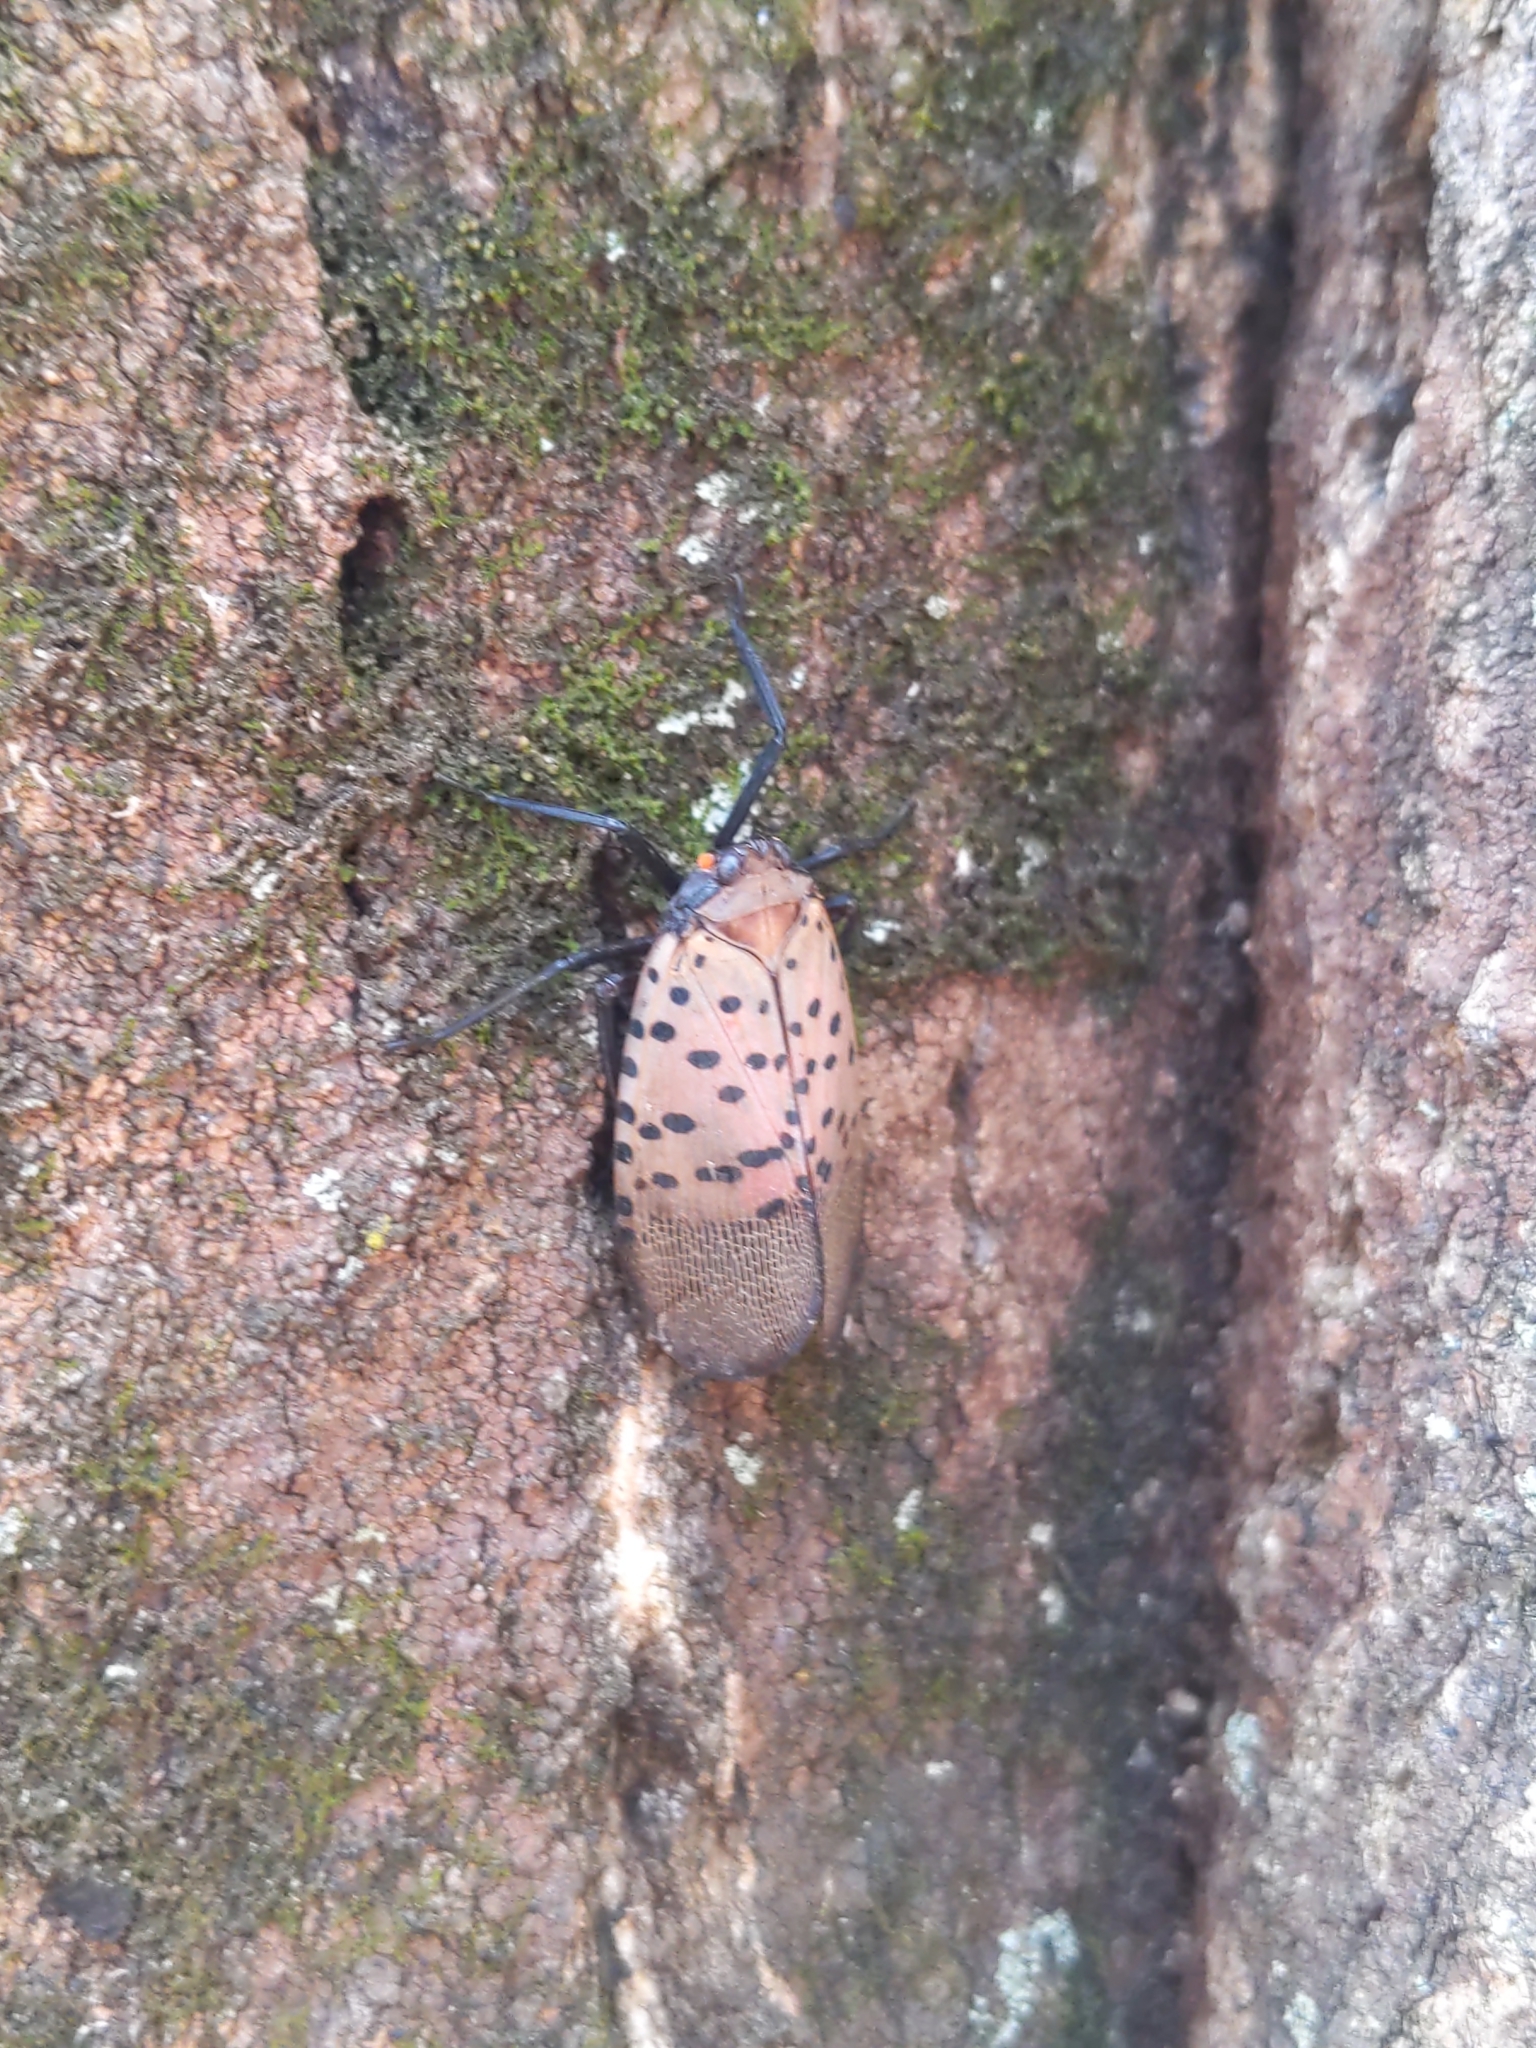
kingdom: Animalia
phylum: Arthropoda
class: Insecta
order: Hemiptera
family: Fulgoridae
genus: Lycorma
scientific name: Lycorma delicatula
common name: Spotted lanternfly
